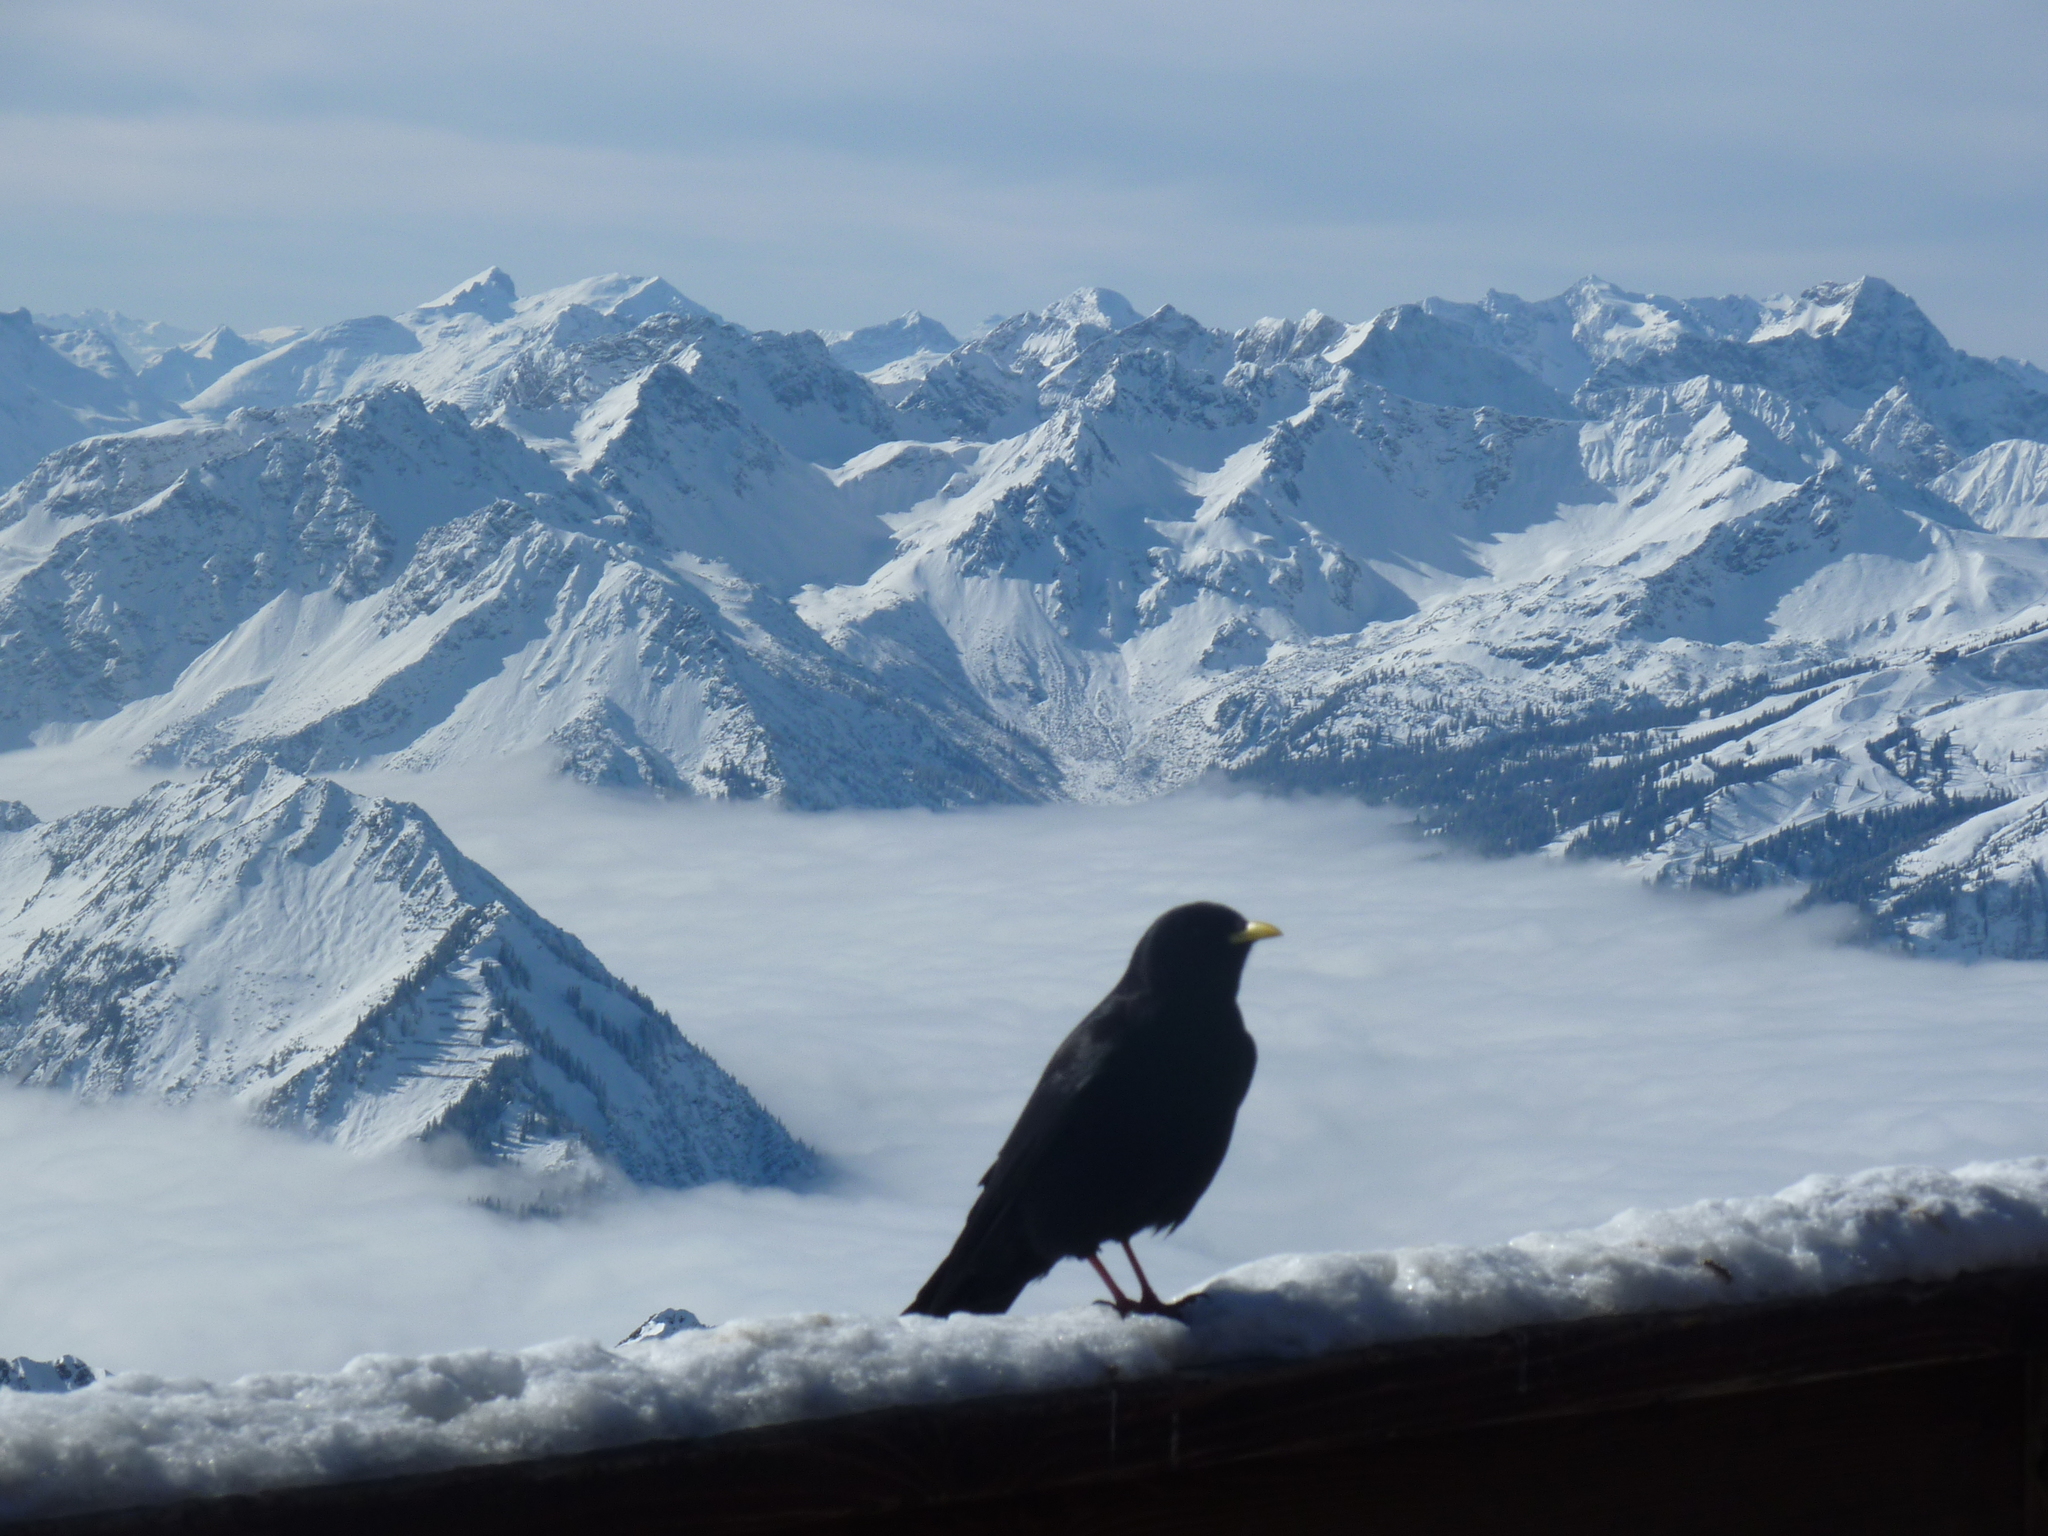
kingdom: Animalia
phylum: Chordata
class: Aves
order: Passeriformes
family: Corvidae
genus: Pyrrhocorax
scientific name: Pyrrhocorax graculus
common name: Alpine chough
